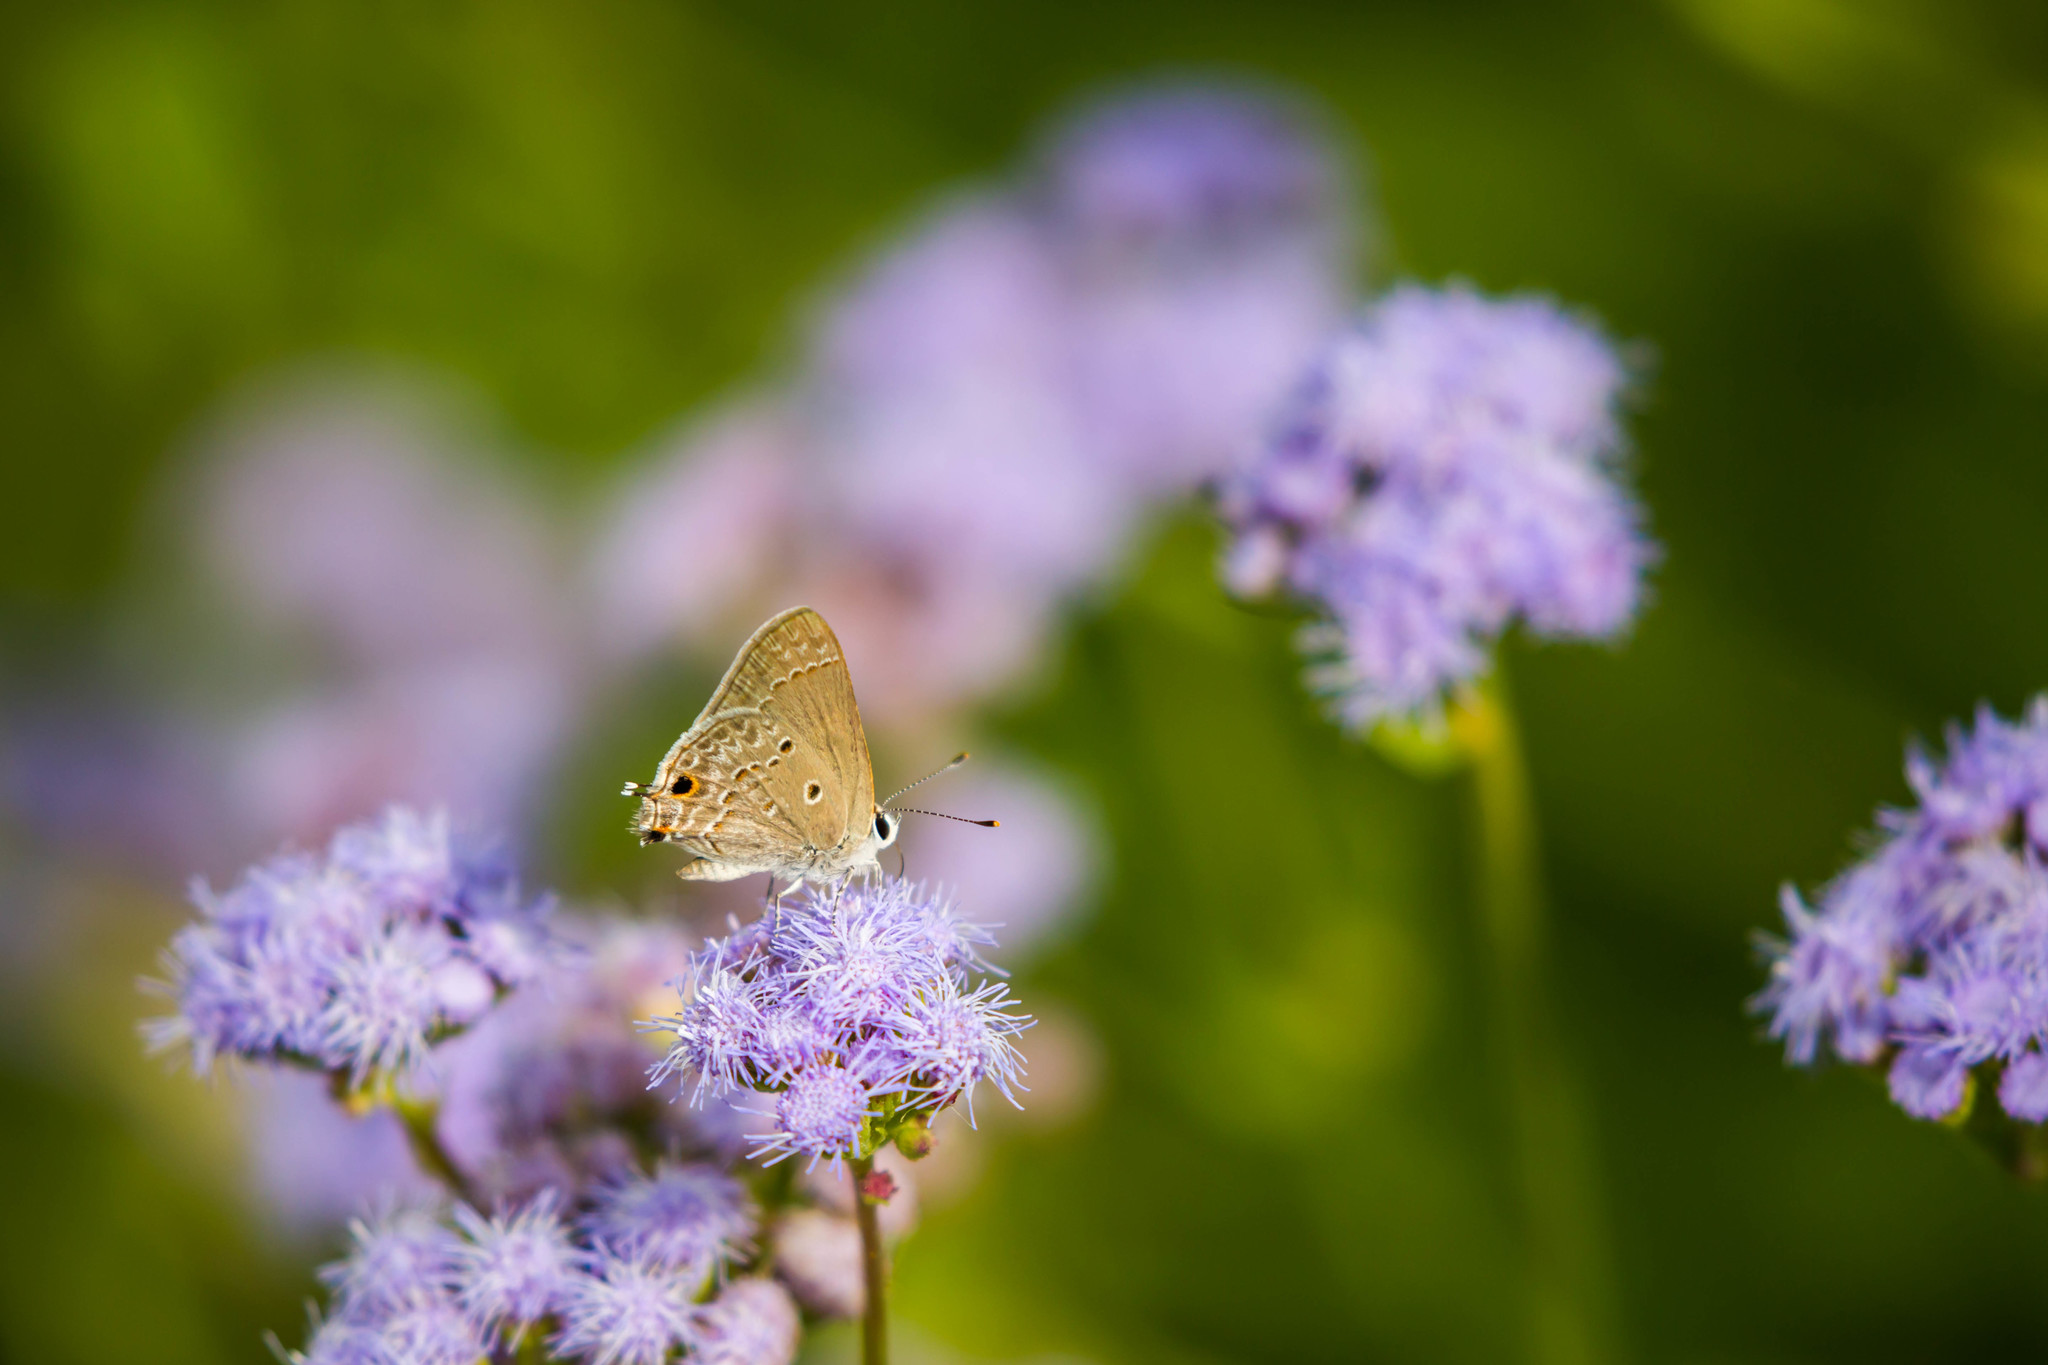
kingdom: Animalia
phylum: Arthropoda
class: Insecta
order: Lepidoptera
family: Lycaenidae
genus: Callicista
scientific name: Callicista columella
